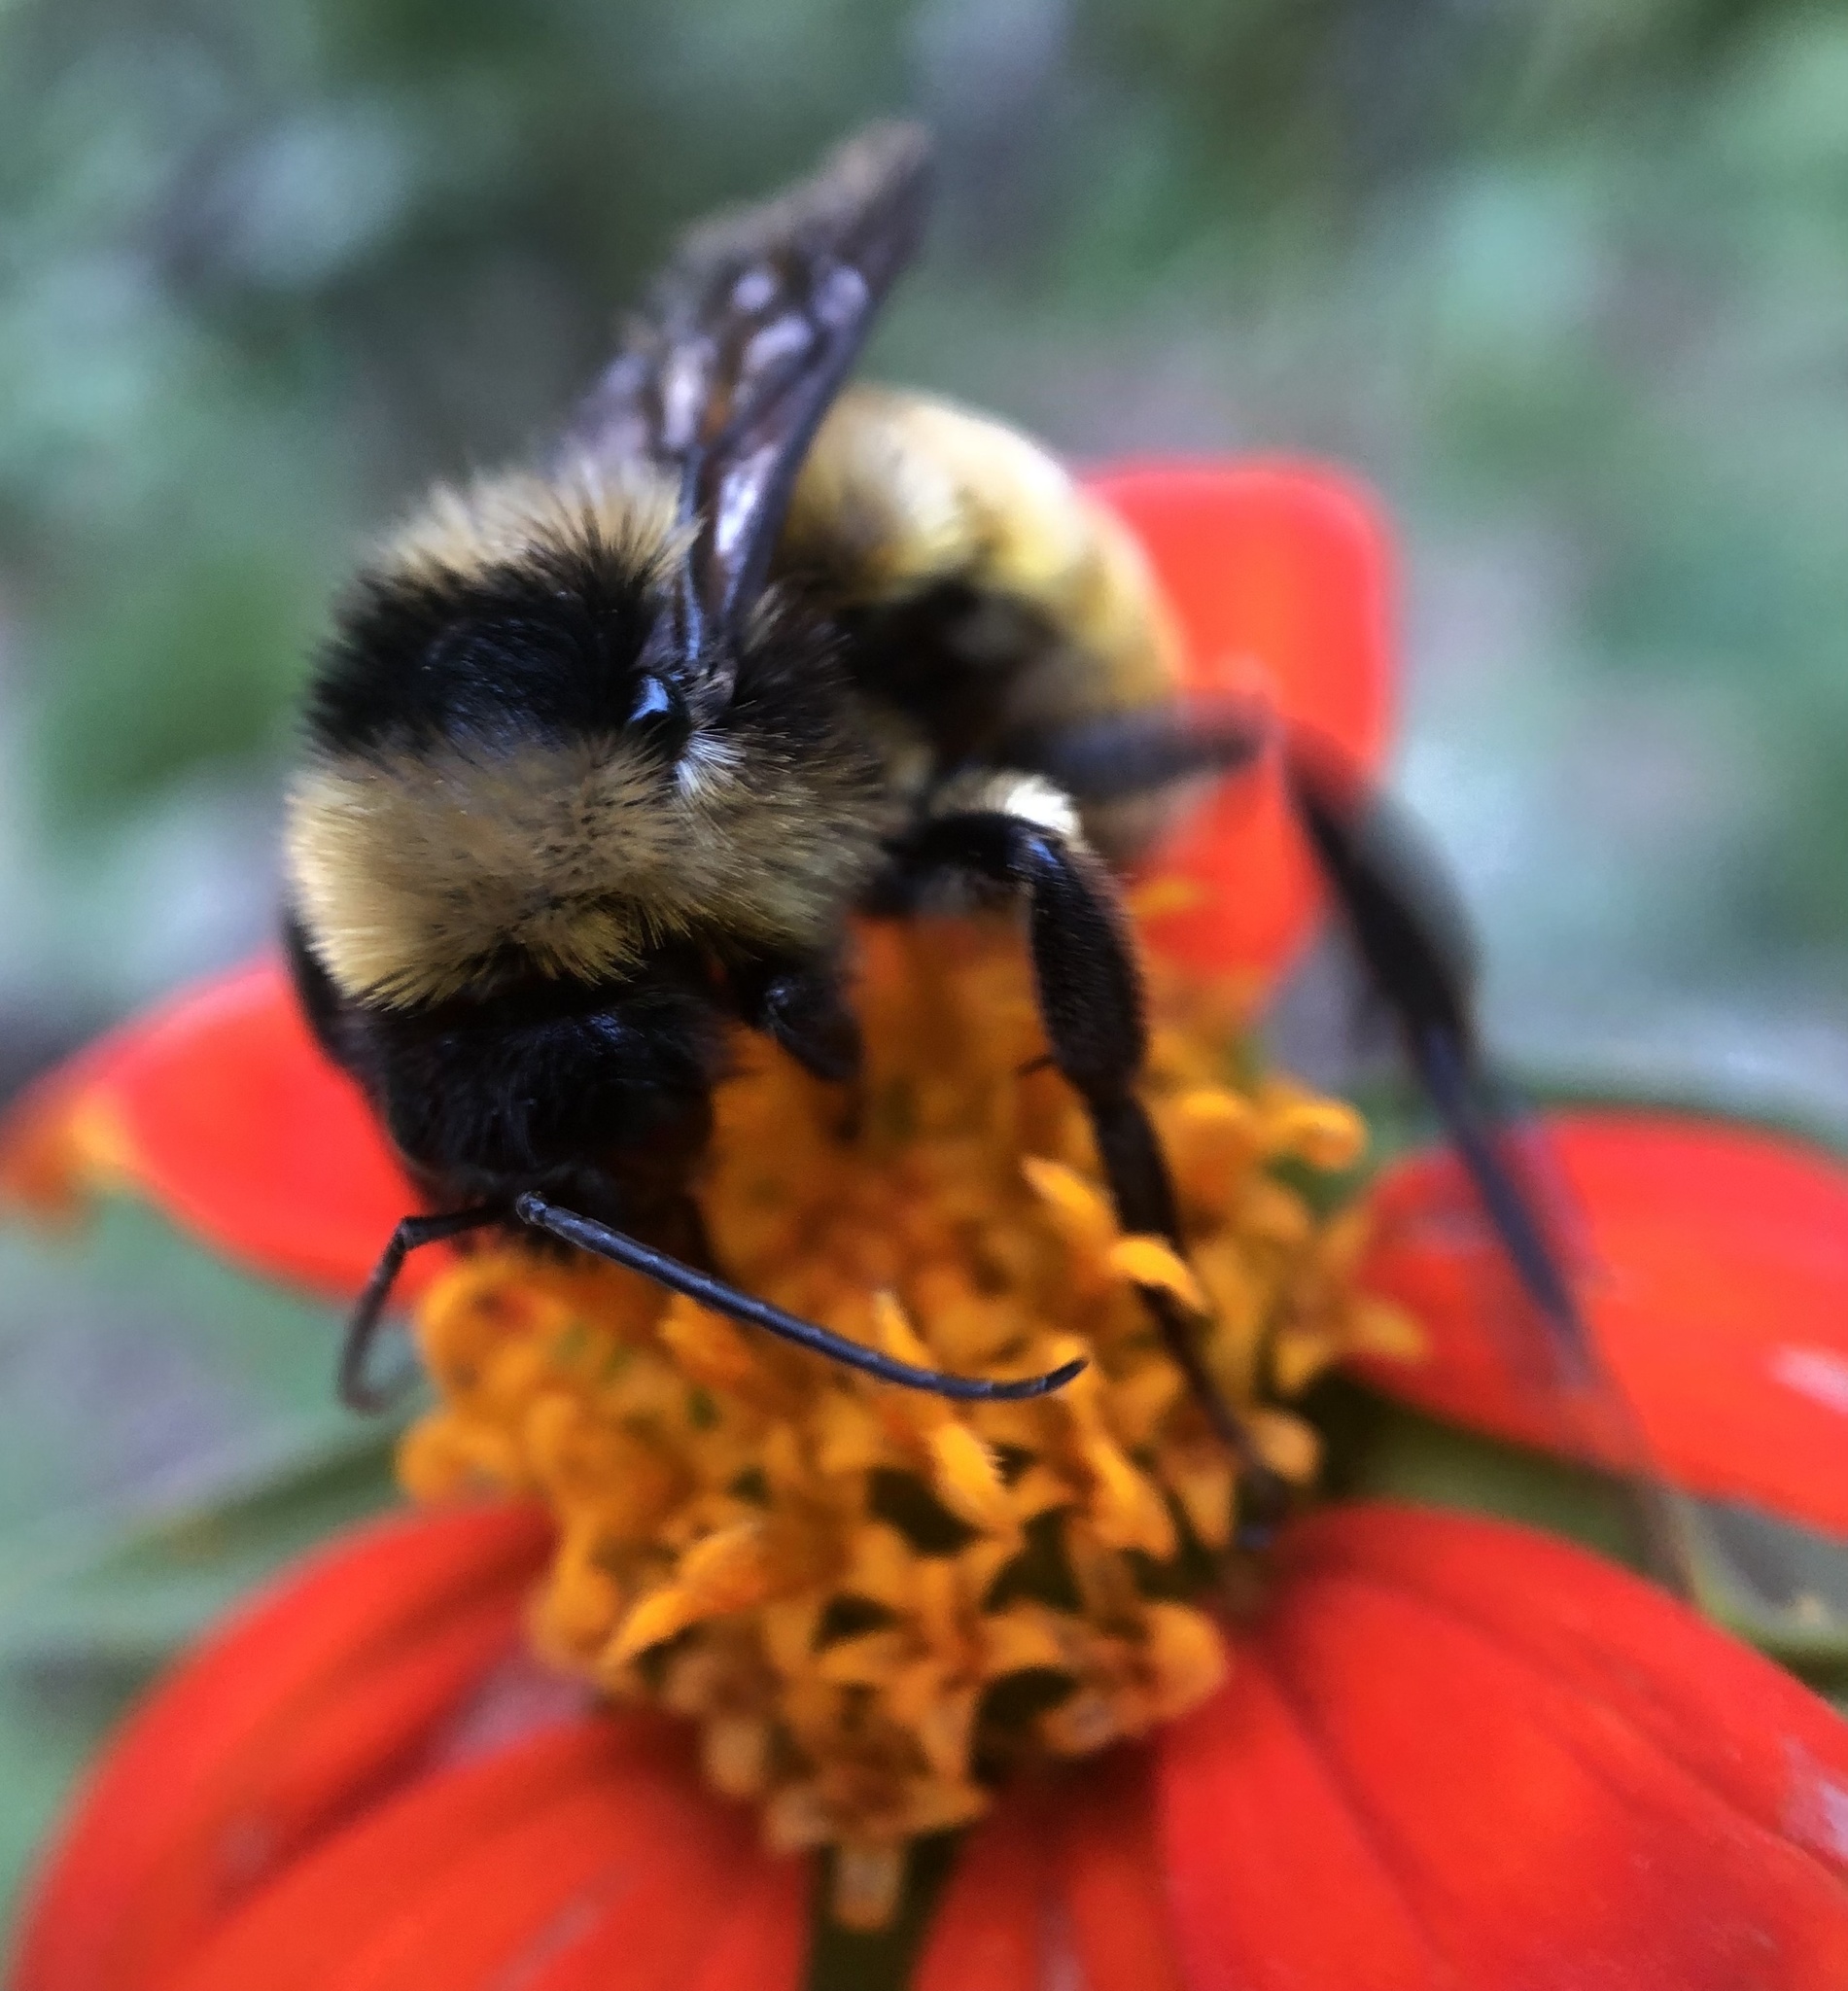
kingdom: Animalia
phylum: Arthropoda
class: Insecta
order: Hymenoptera
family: Apidae
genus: Bombus
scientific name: Bombus pensylvanicus
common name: Bumble bee
